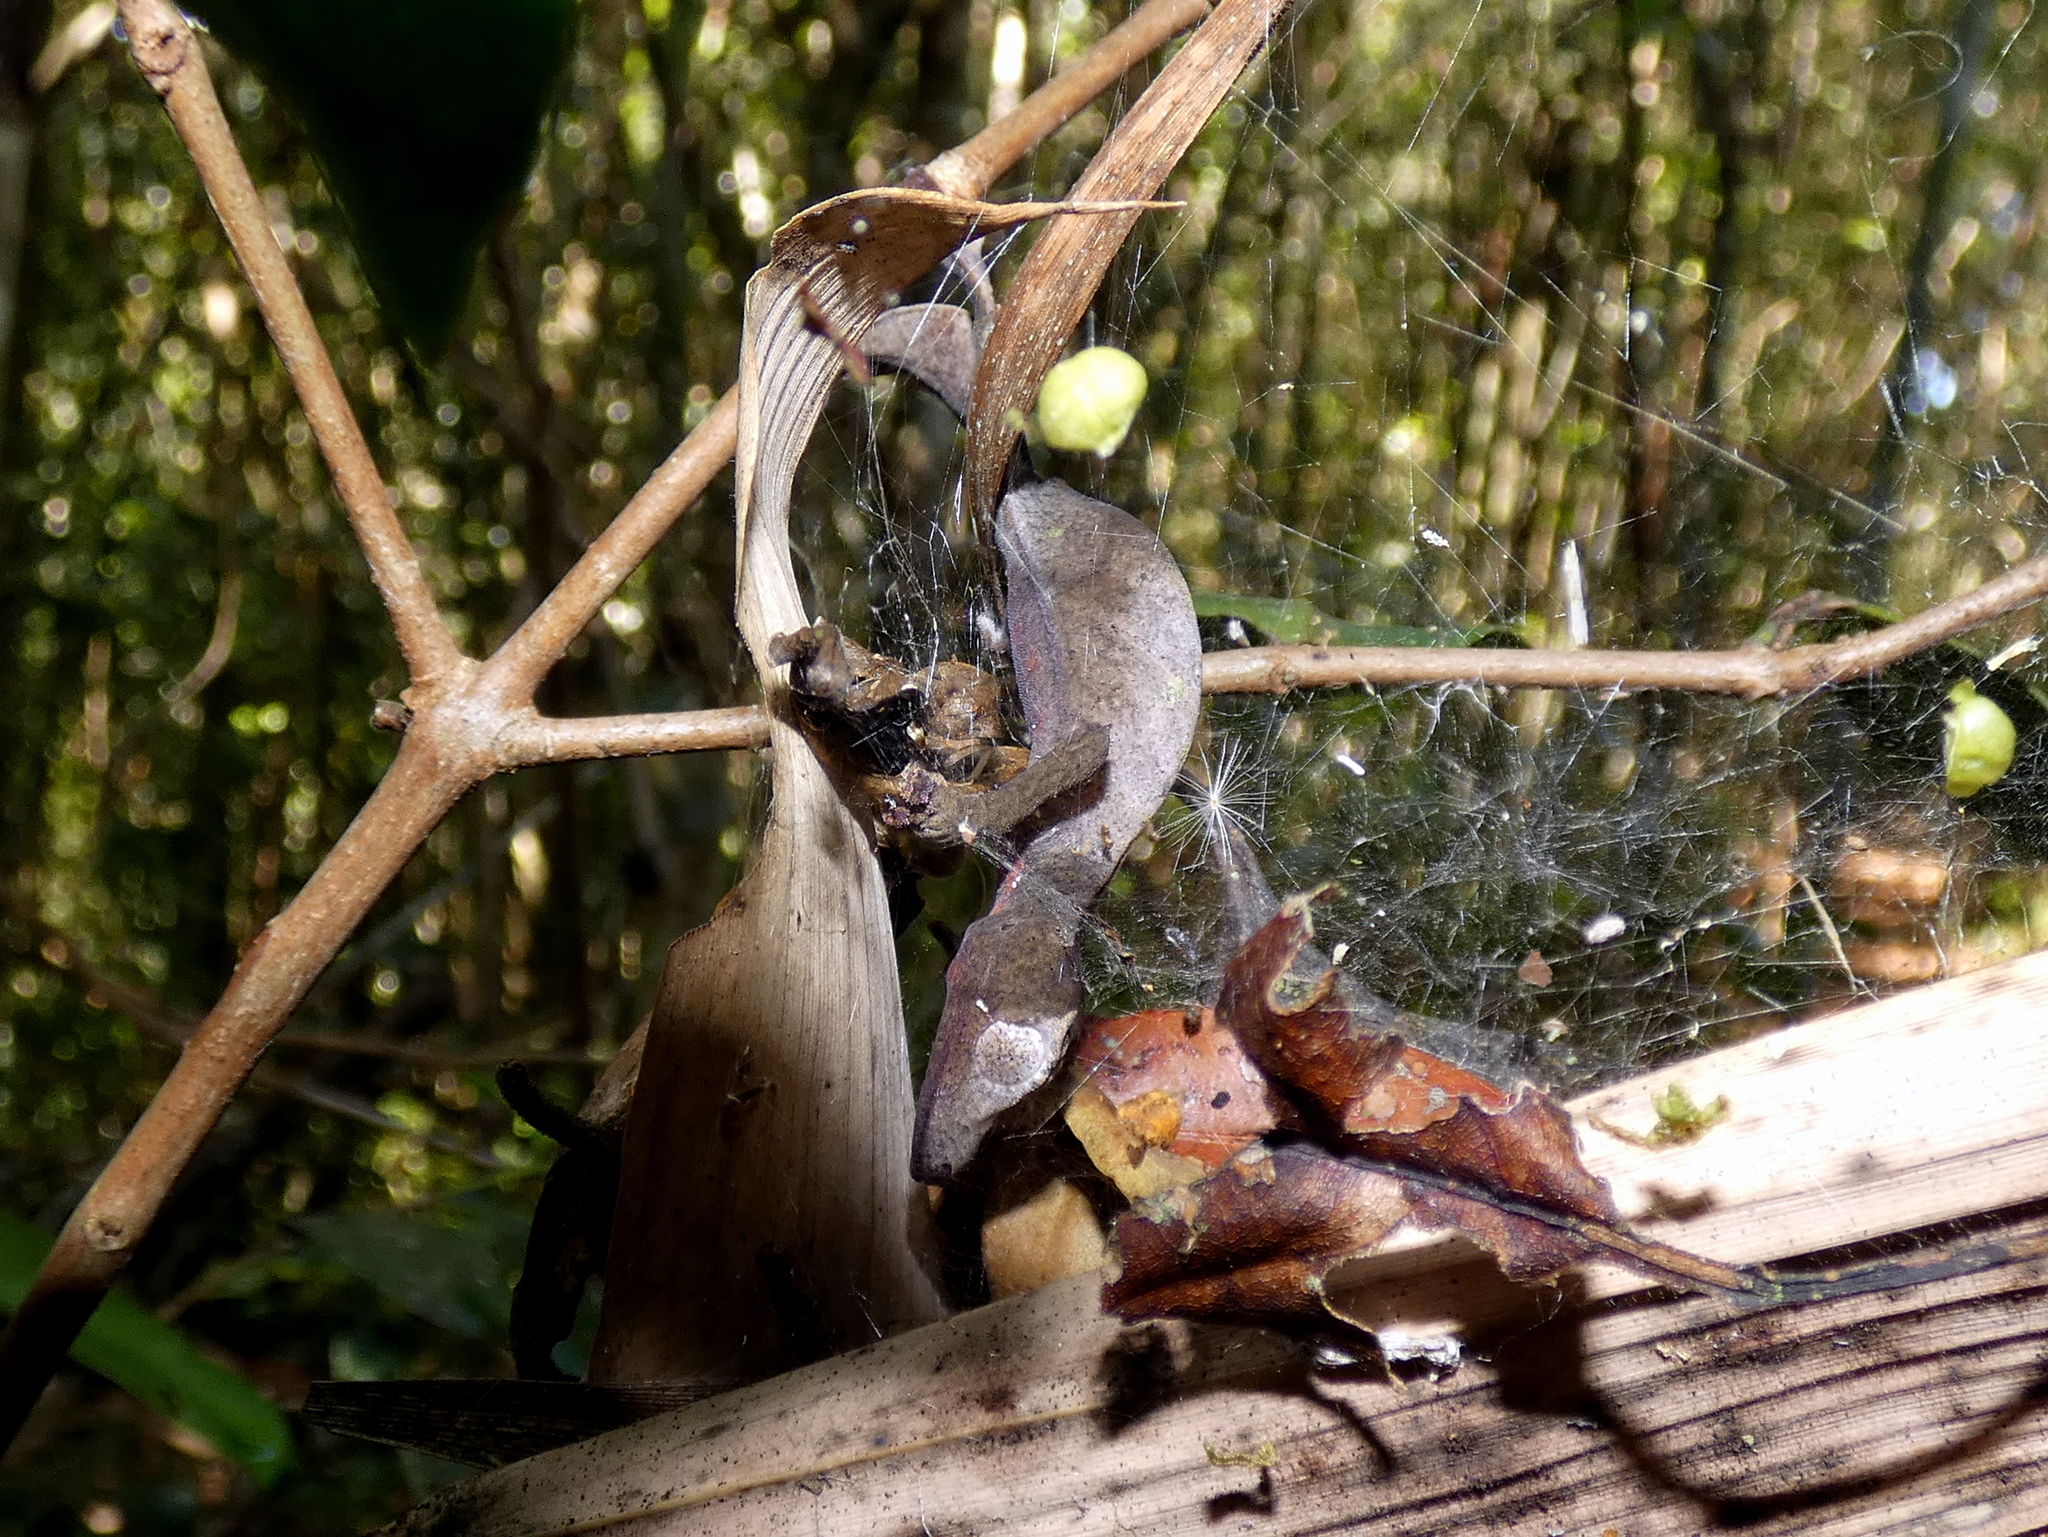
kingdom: Animalia
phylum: Chordata
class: Squamata
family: Gekkonidae
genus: Uroplatus
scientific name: Uroplatus phantasticus
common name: Phantastic leaf-tailed gecko
